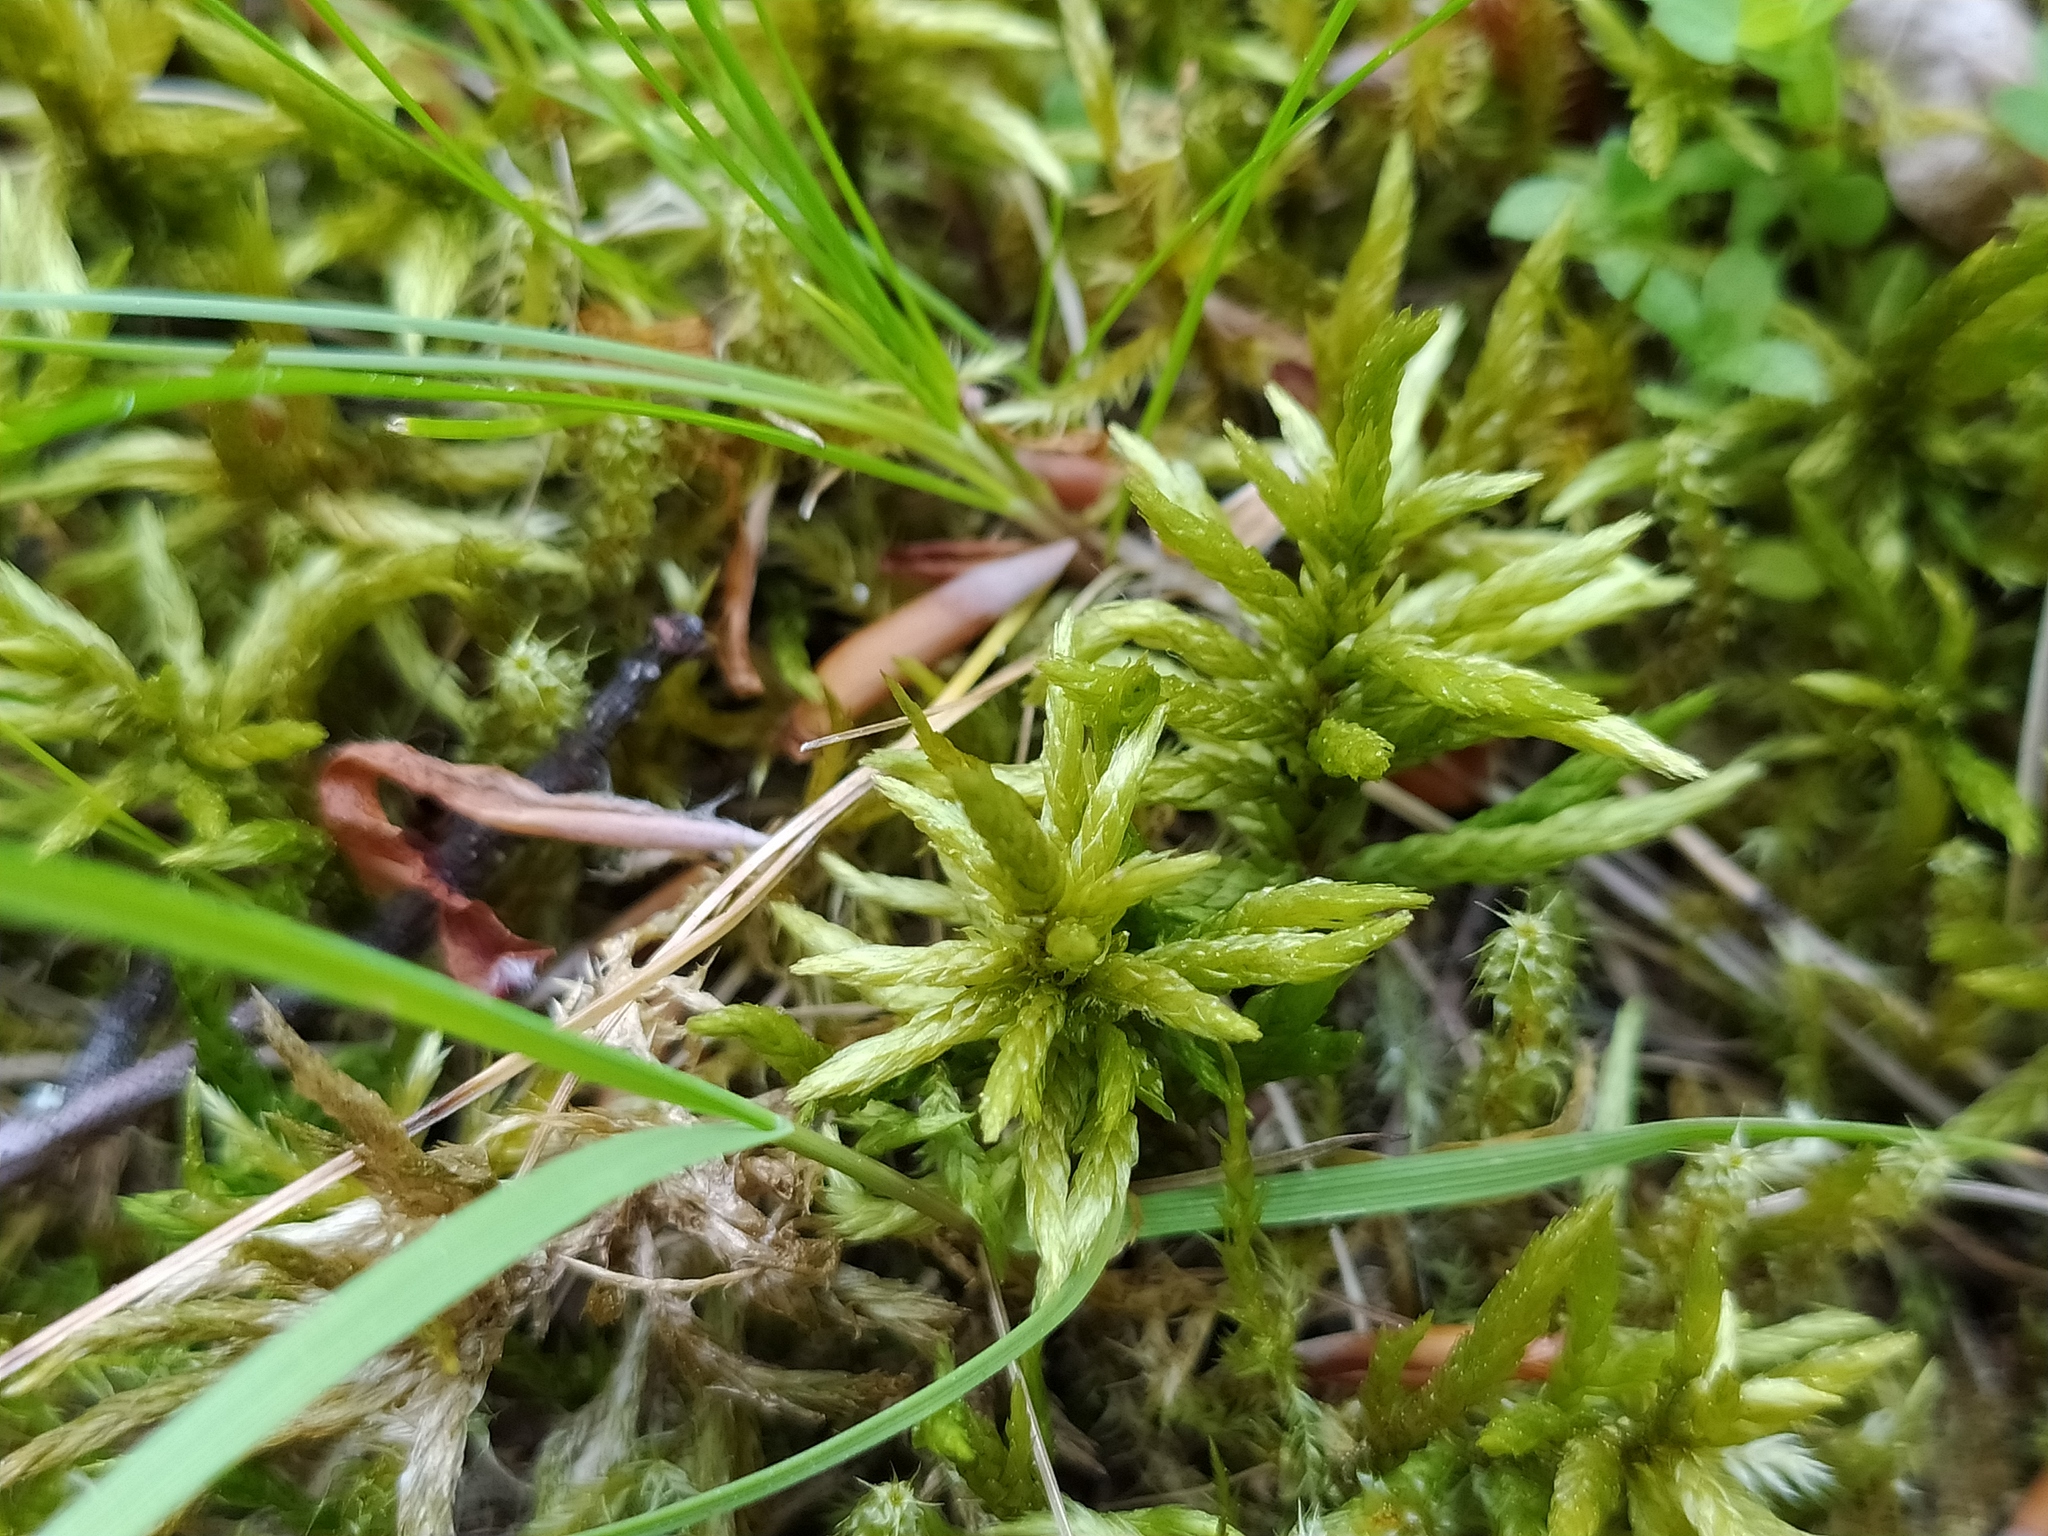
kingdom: Plantae
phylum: Bryophyta
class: Bryopsida
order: Hypnales
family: Climaciaceae
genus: Climacium
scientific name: Climacium dendroides
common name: Northern tree moss
